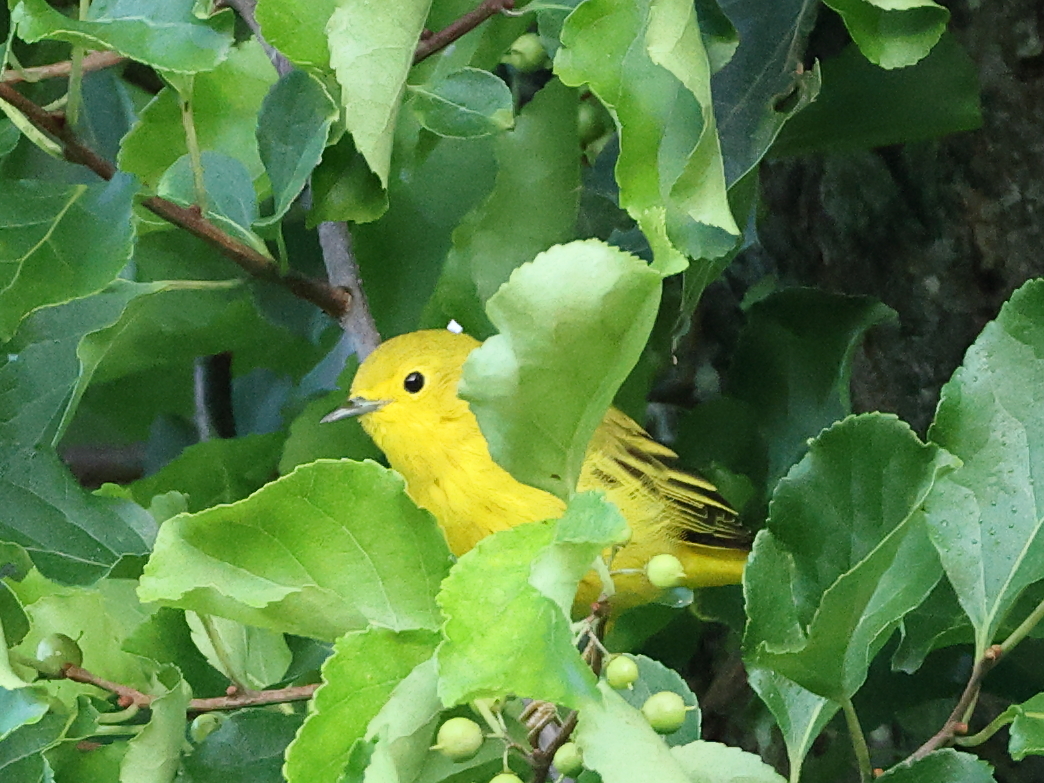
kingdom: Animalia
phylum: Chordata
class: Aves
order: Passeriformes
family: Parulidae
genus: Setophaga
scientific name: Setophaga petechia
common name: Yellow warbler
